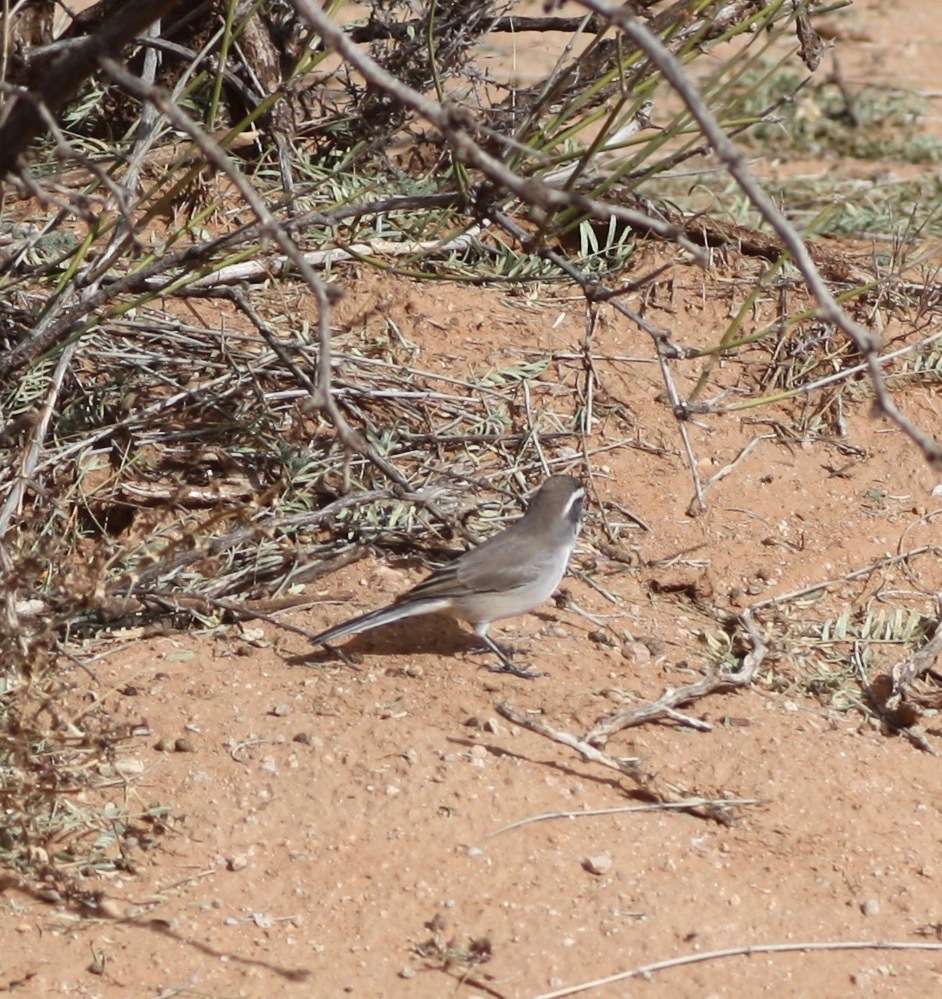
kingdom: Animalia
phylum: Chordata
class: Aves
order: Passeriformes
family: Passerellidae
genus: Amphispiza
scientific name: Amphispiza bilineata
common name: Black-throated sparrow
